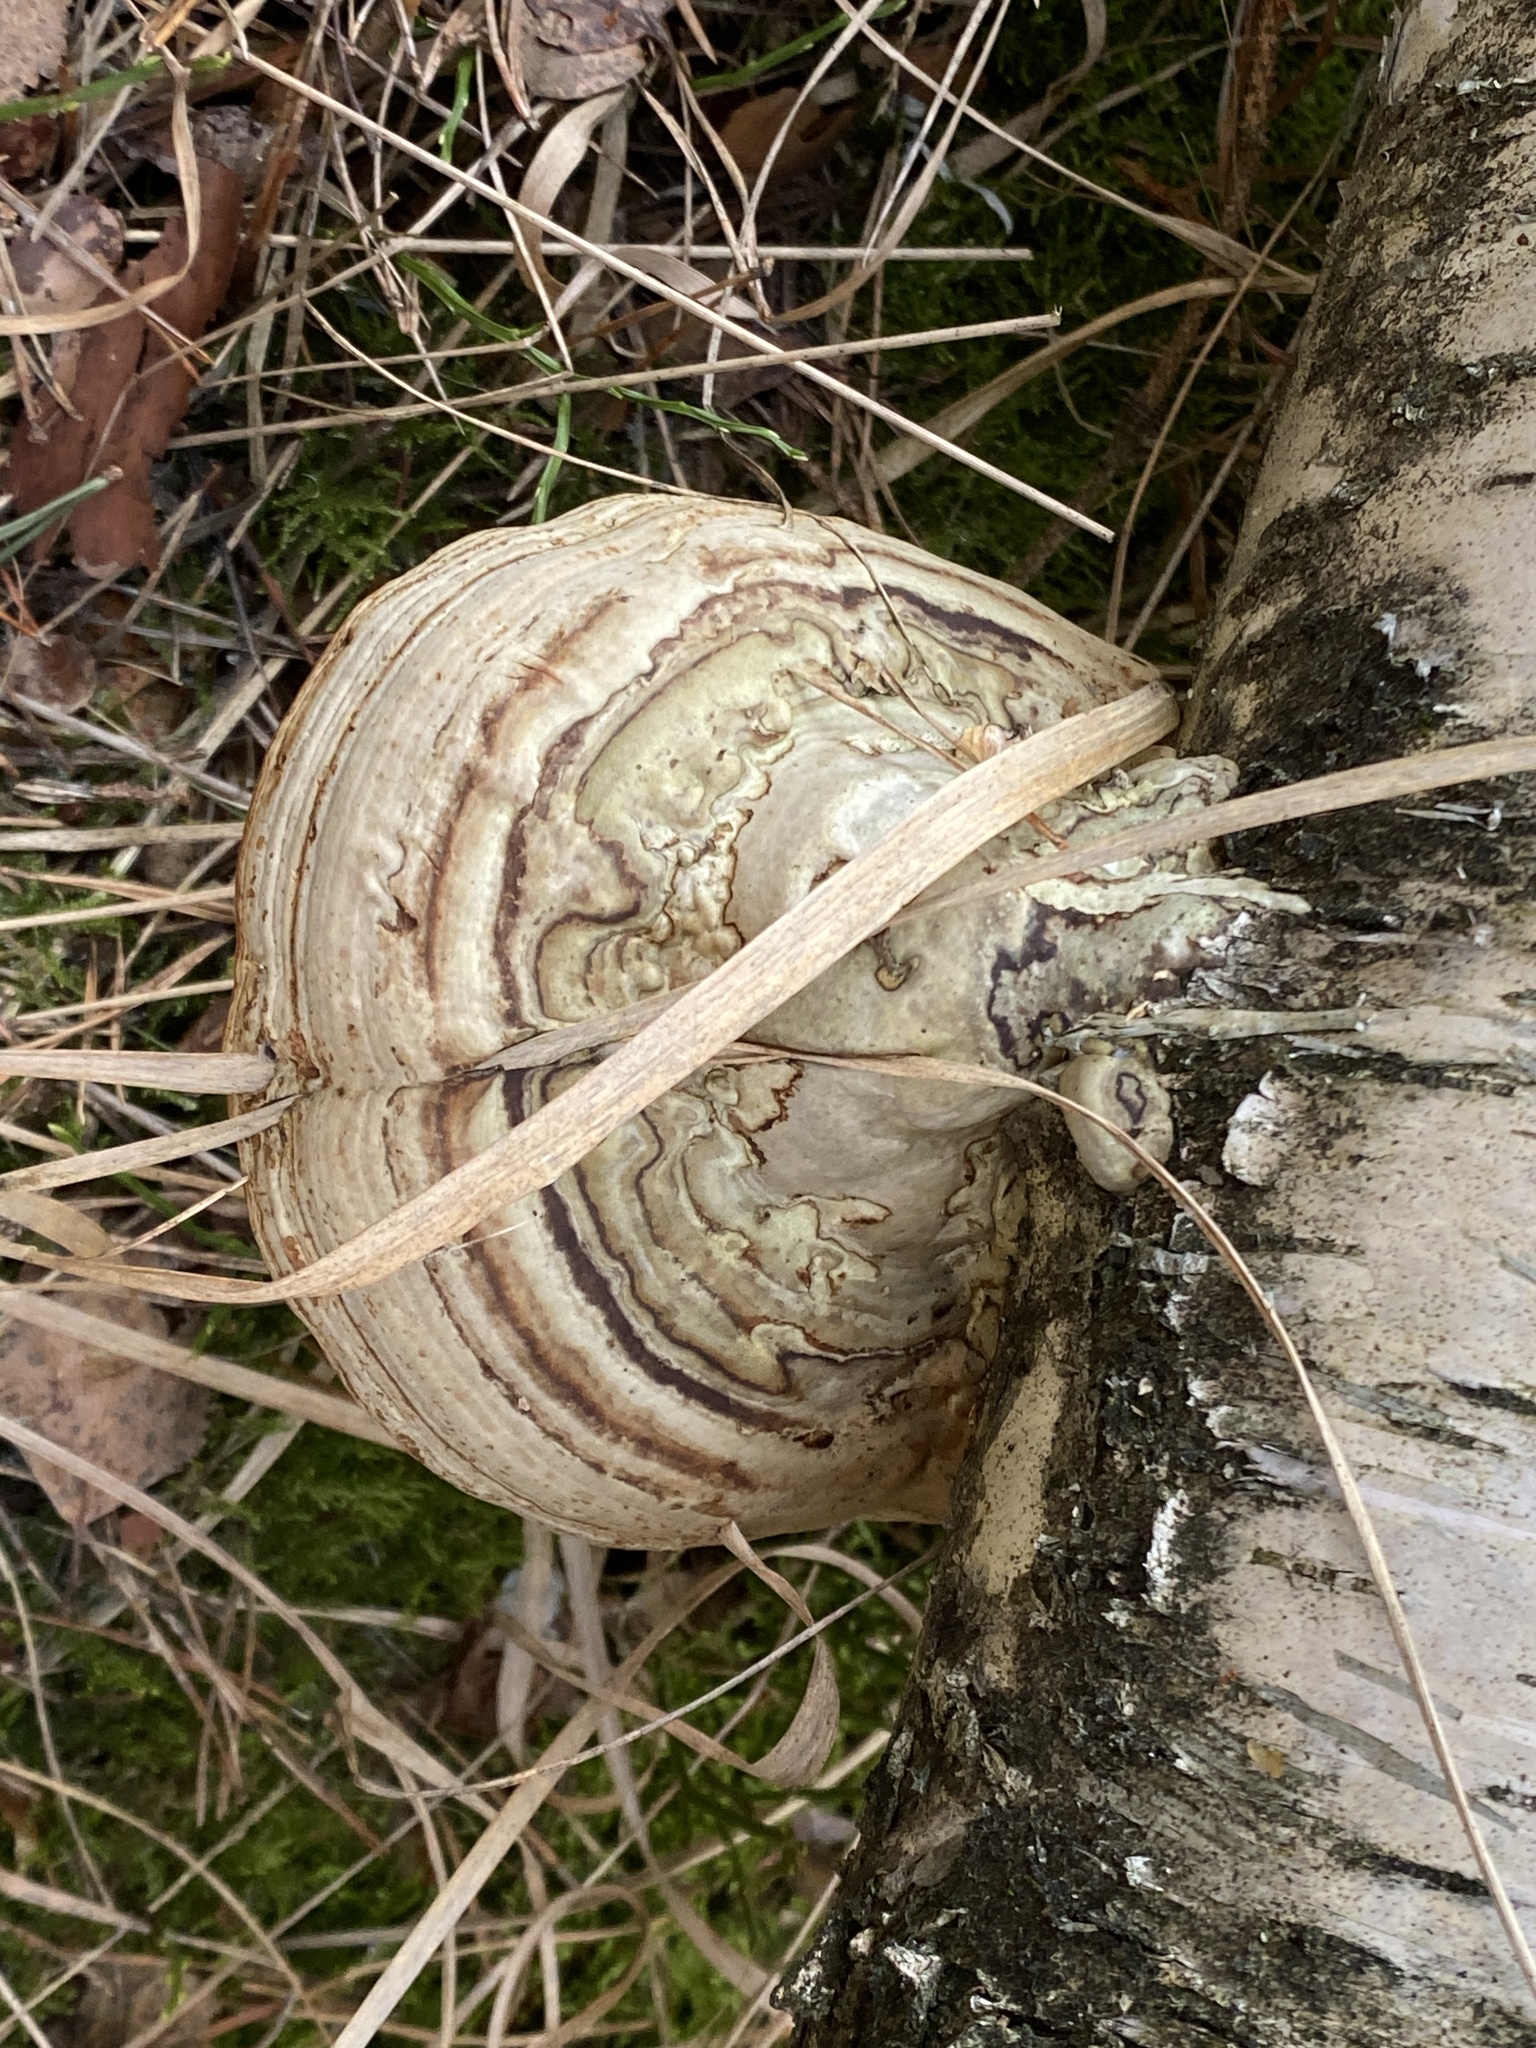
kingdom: Fungi
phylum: Basidiomycota
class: Agaricomycetes
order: Polyporales
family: Polyporaceae
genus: Fomes
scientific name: Fomes fomentarius
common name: Hoof fungus
